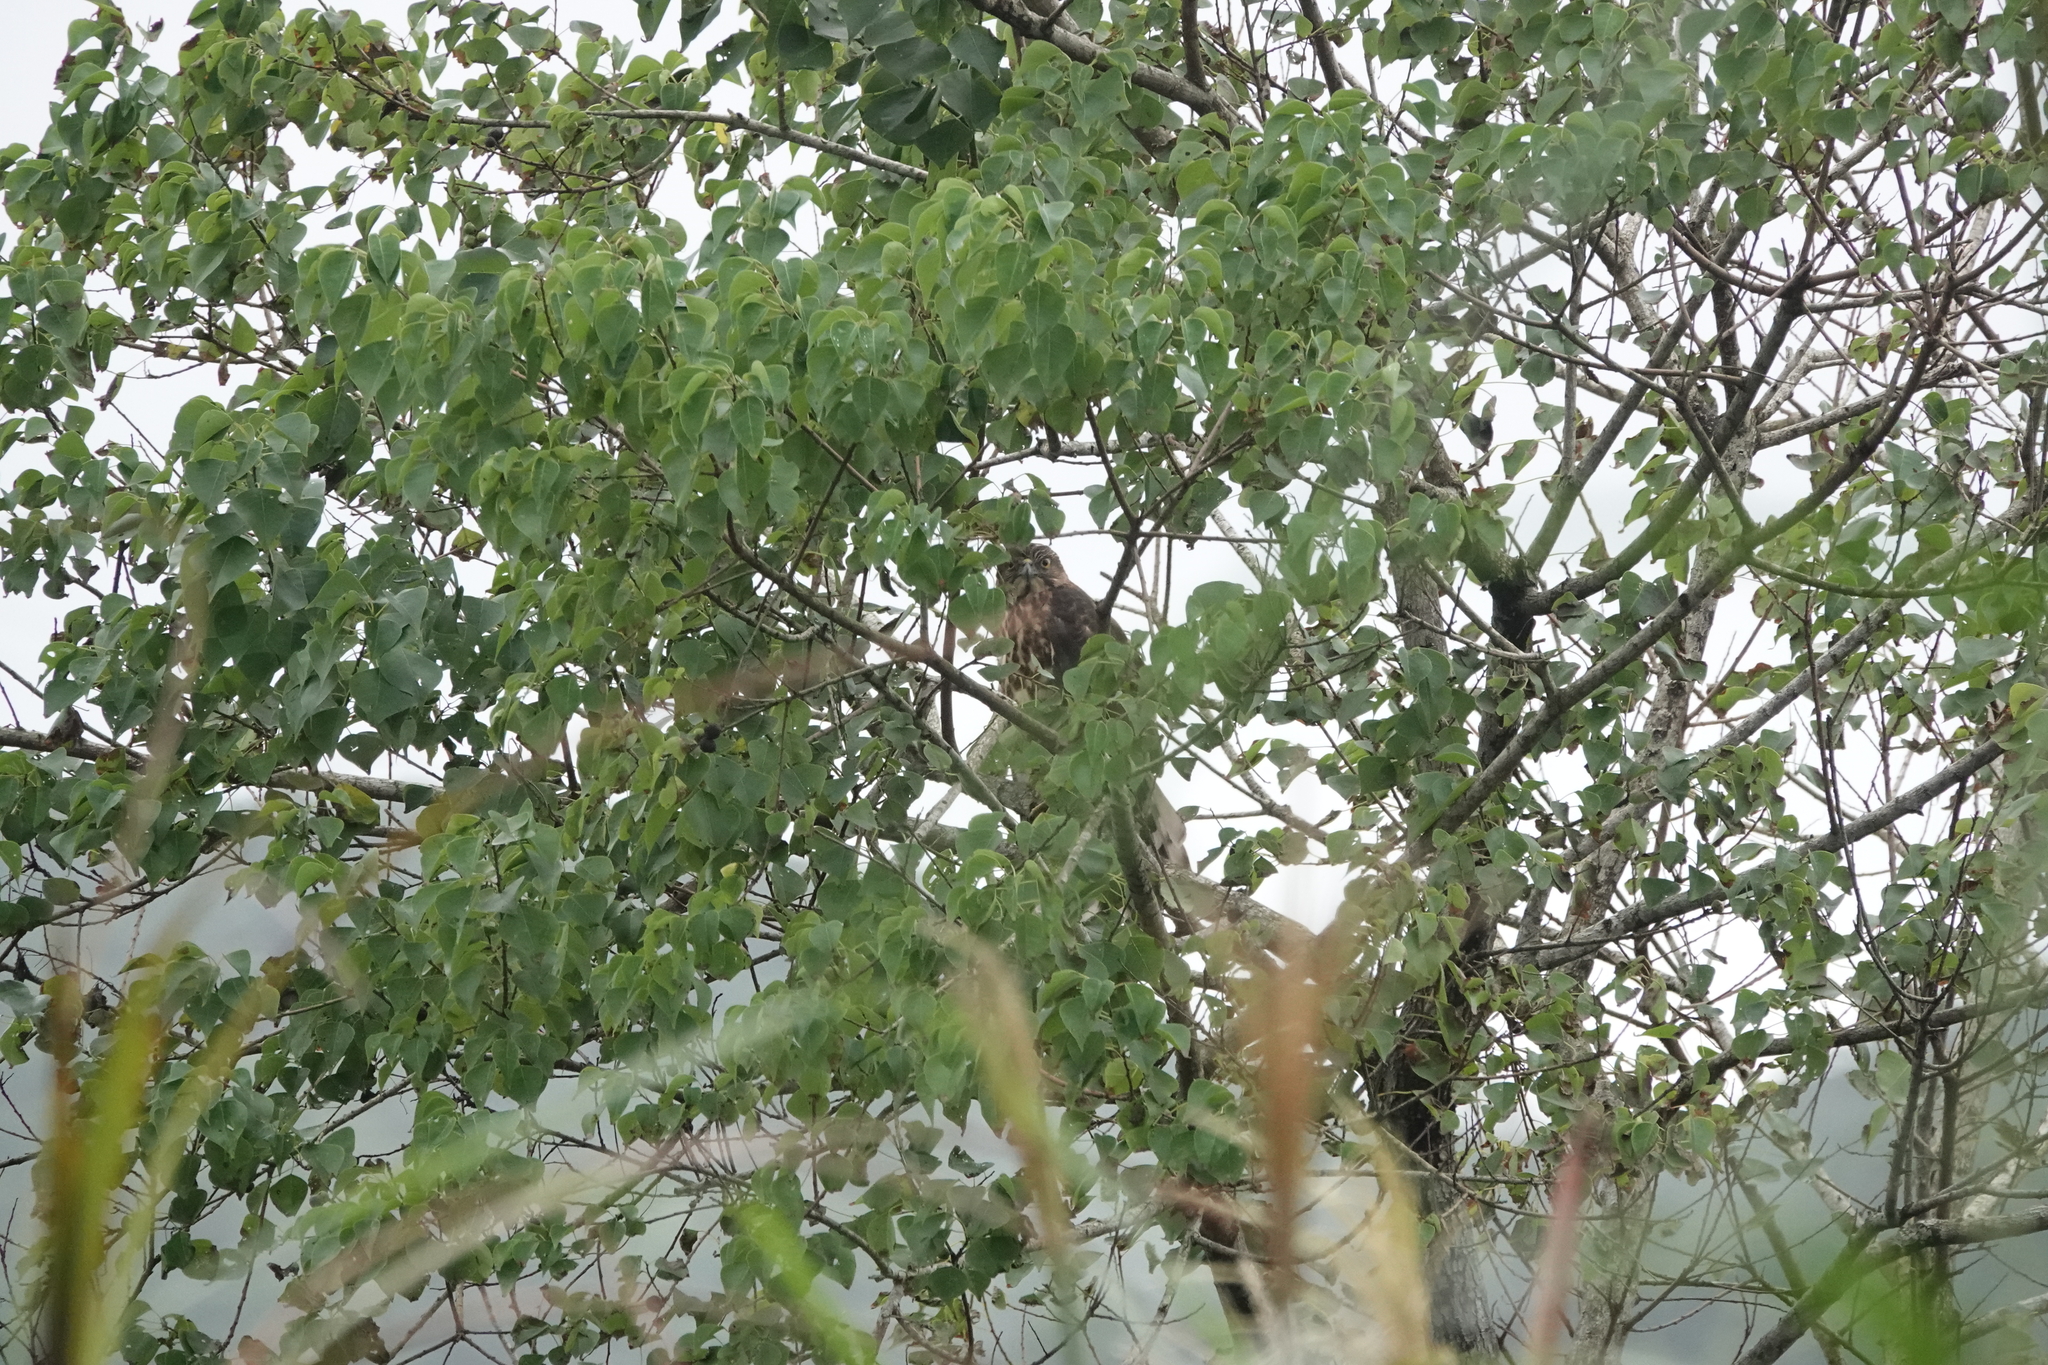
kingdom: Animalia
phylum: Chordata
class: Aves
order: Accipitriformes
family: Accipitridae
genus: Accipiter
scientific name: Accipiter trivirgatus
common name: Crested goshawk
